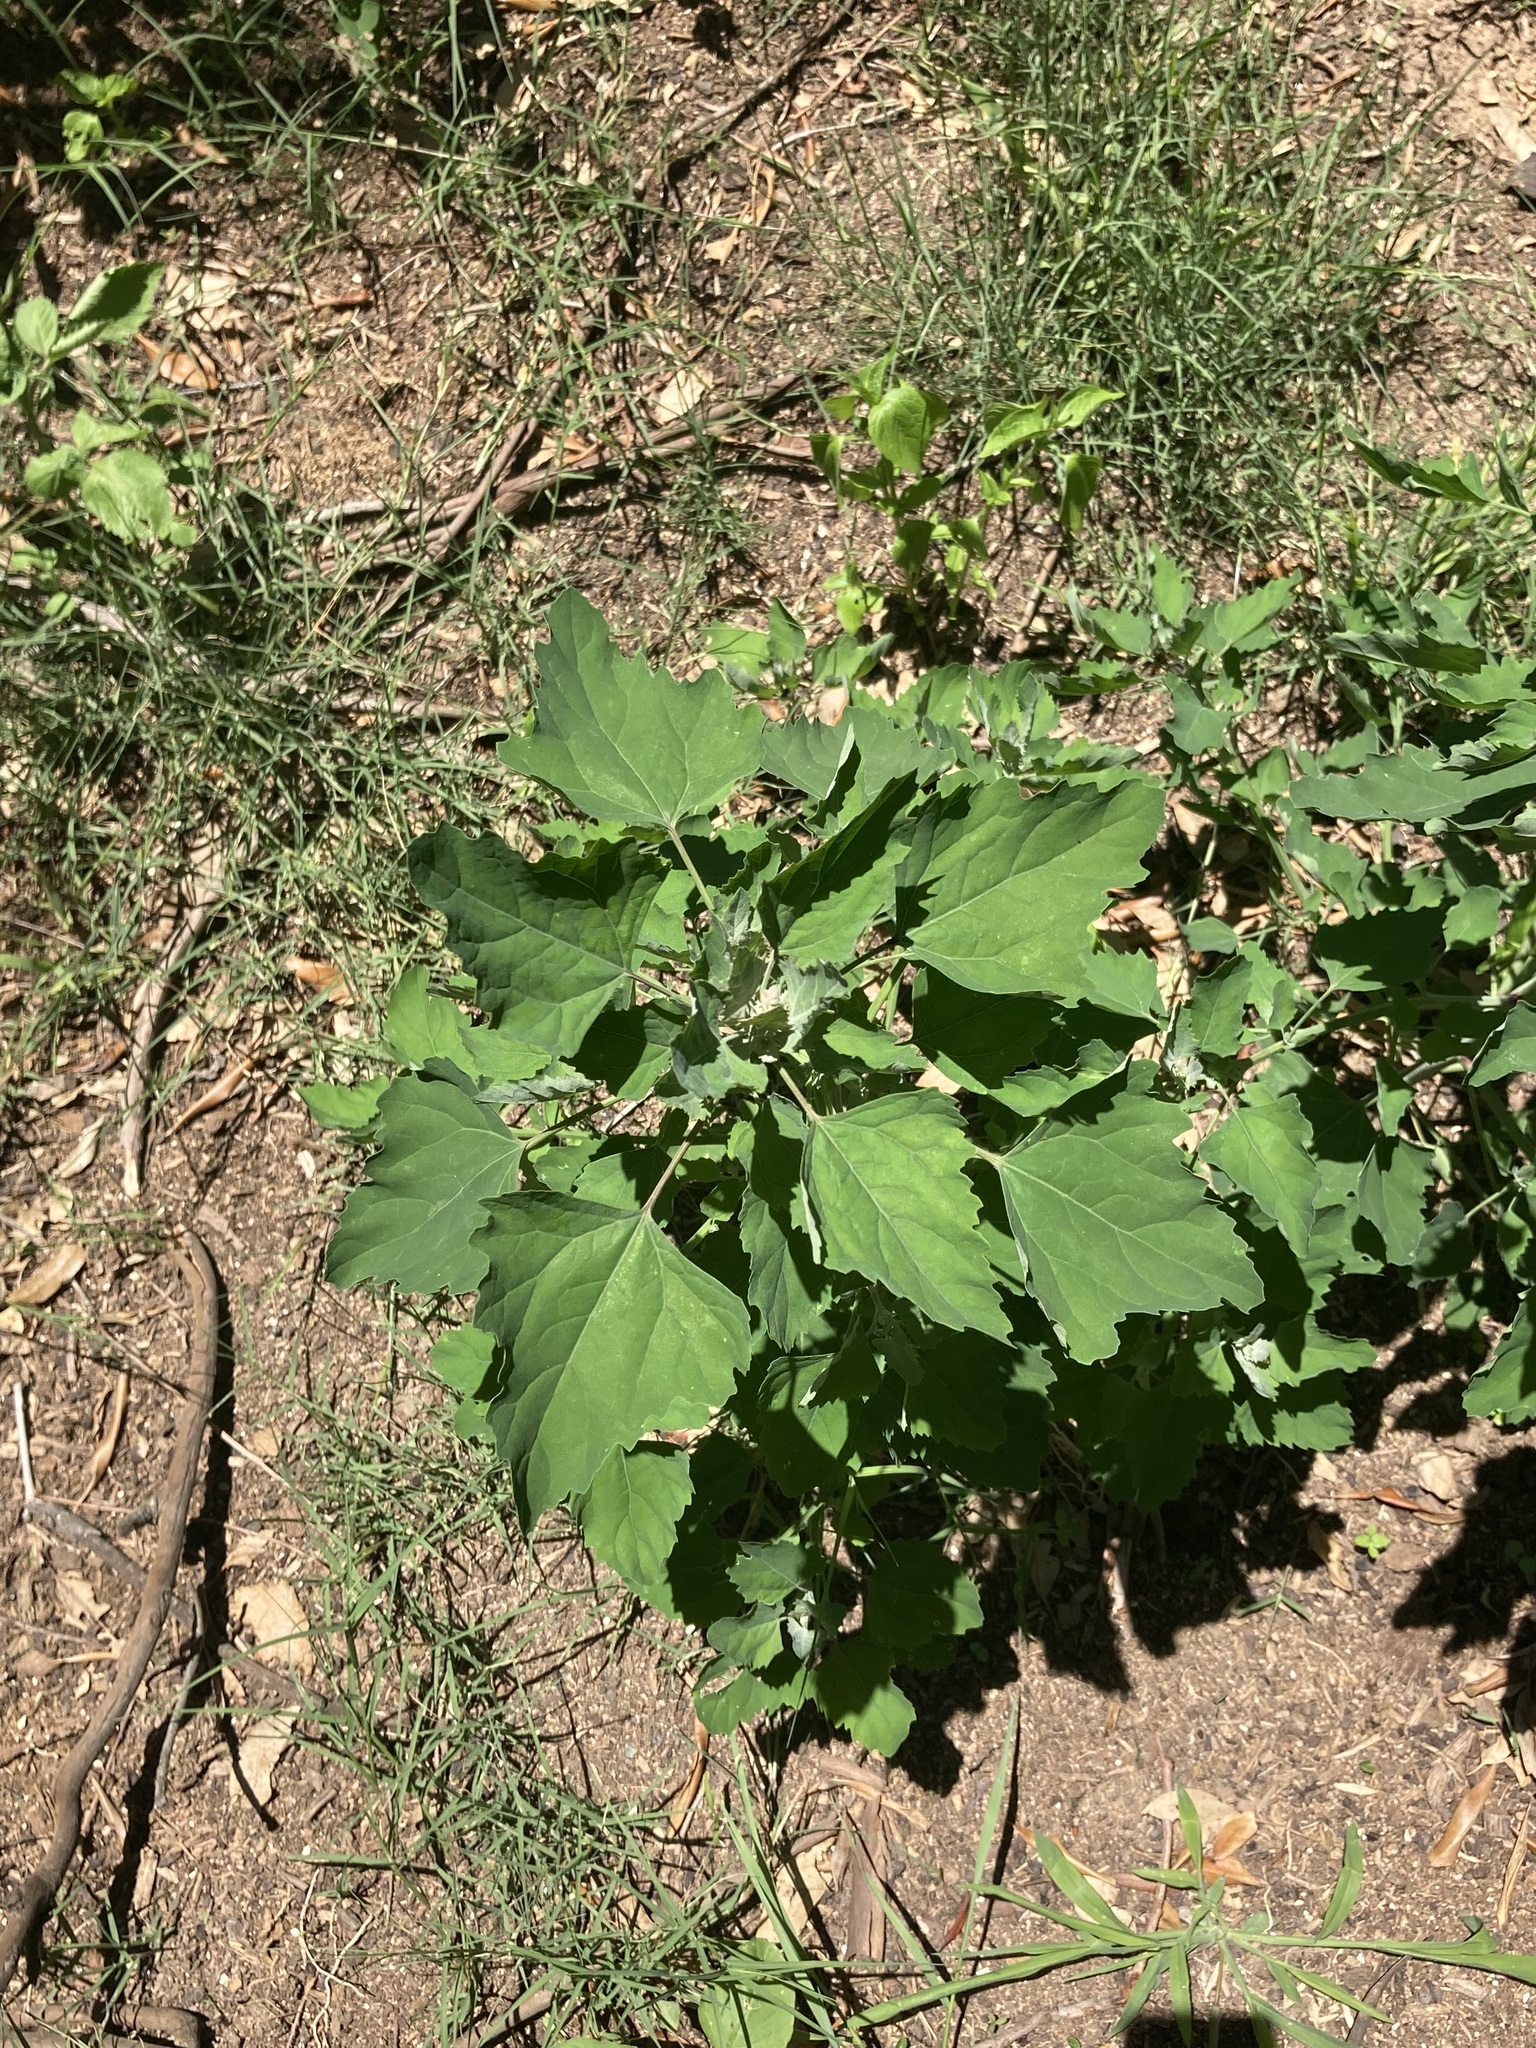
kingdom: Plantae
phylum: Tracheophyta
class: Magnoliopsida
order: Caryophyllales
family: Amaranthaceae
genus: Chenopodium
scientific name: Chenopodium album
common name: Fat-hen
